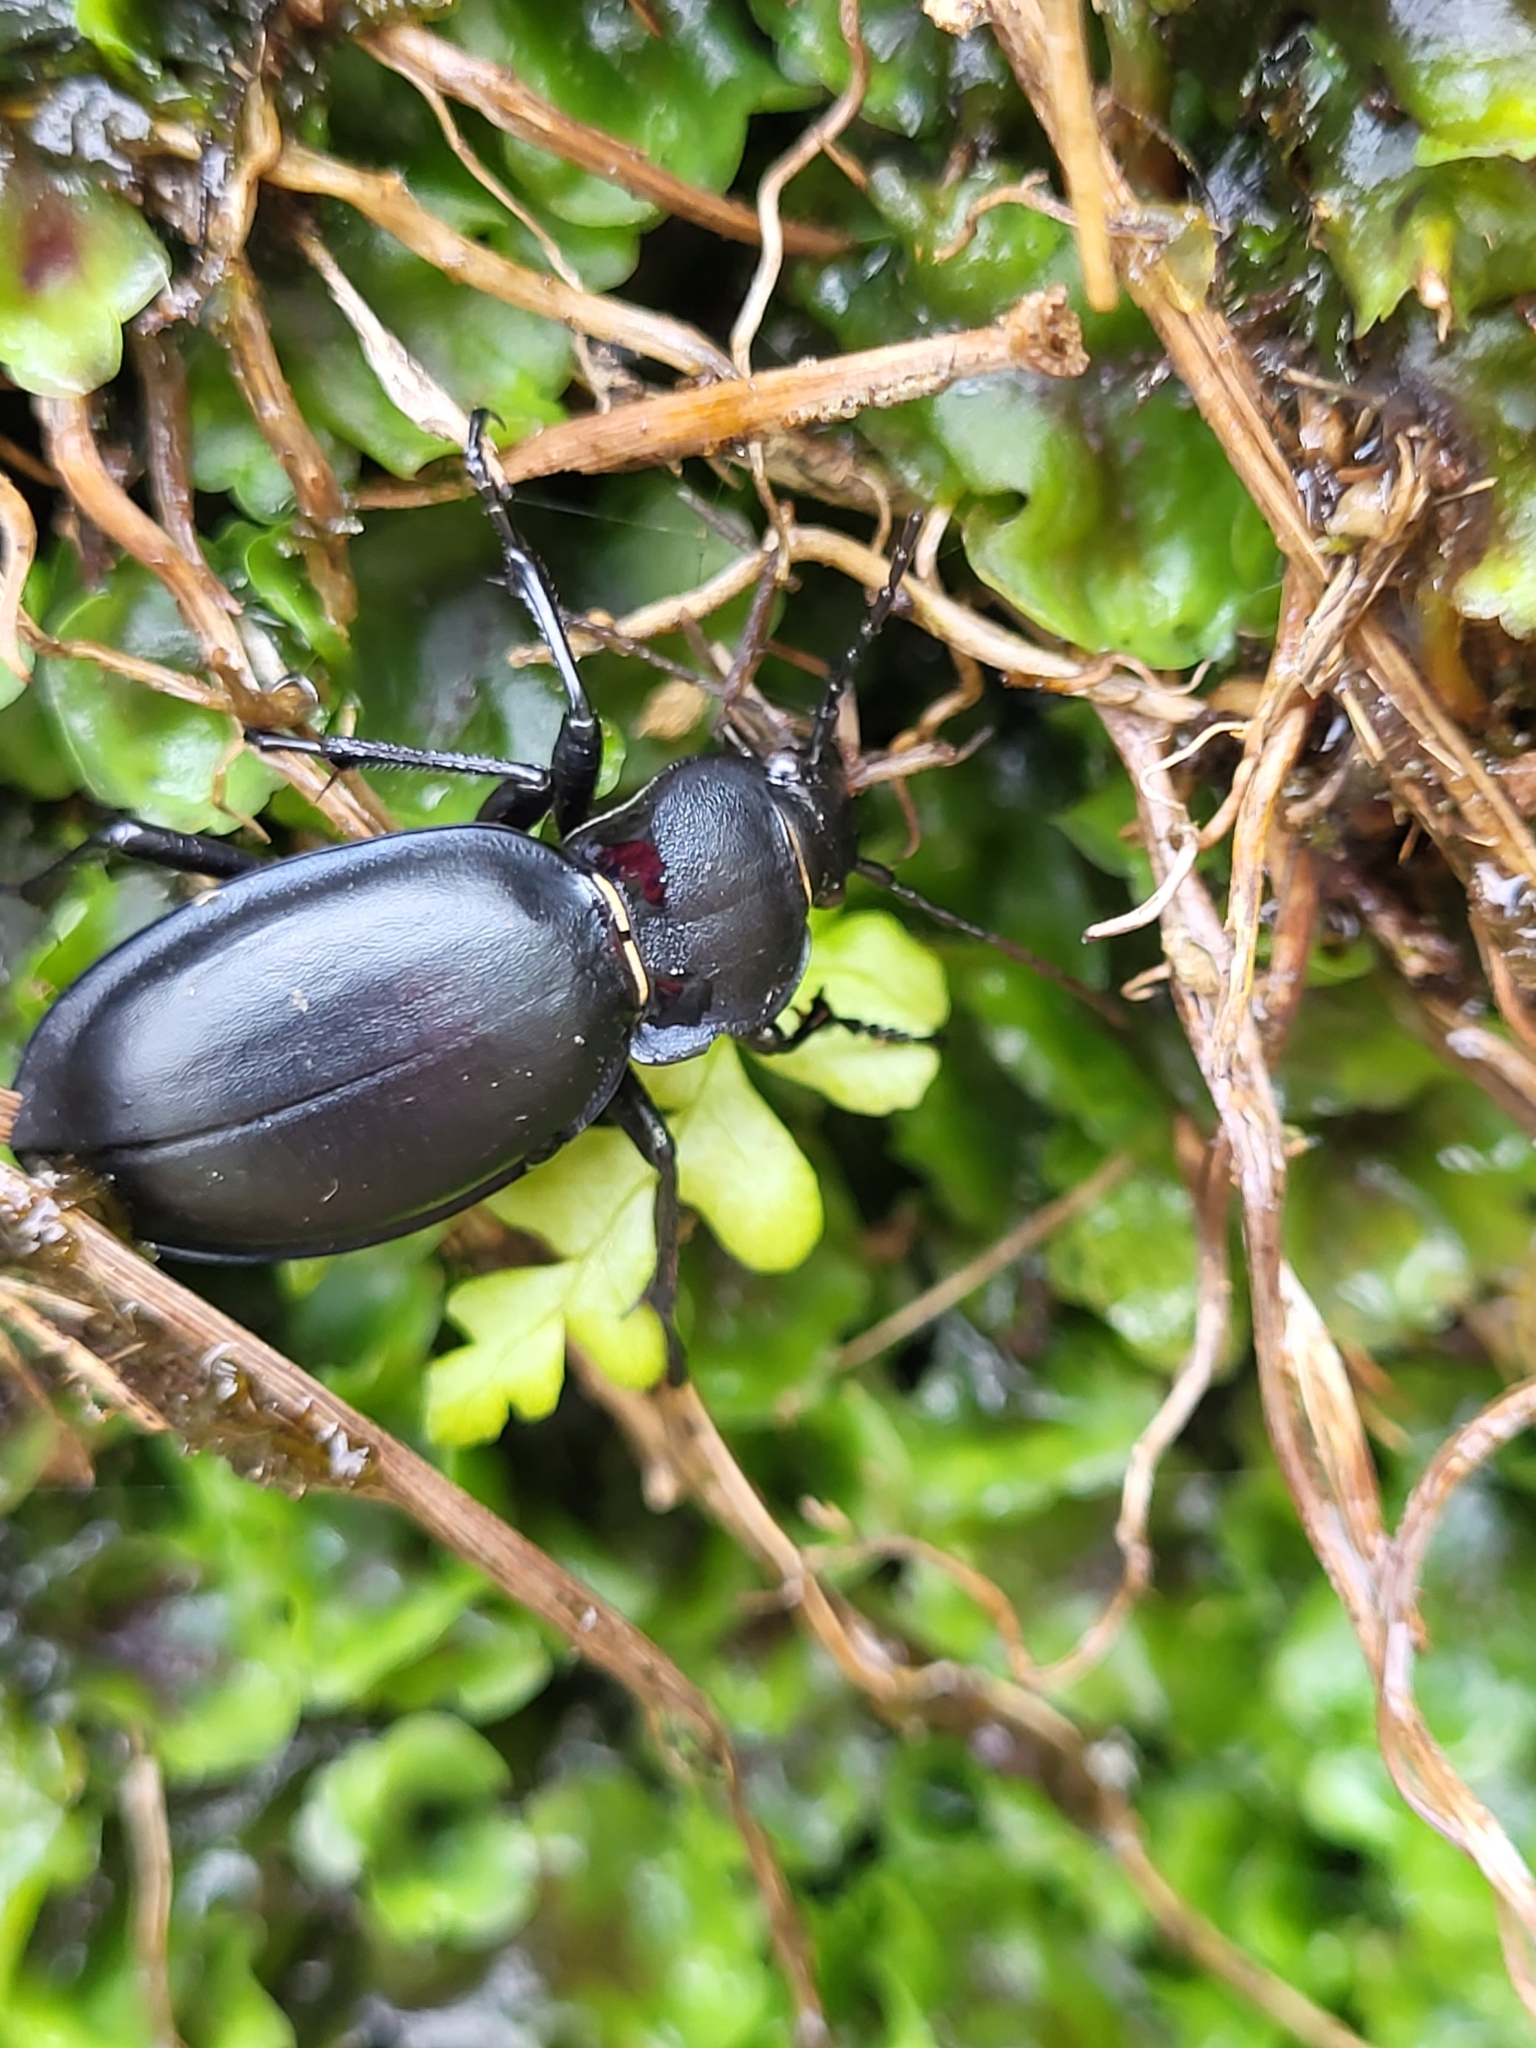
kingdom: Animalia
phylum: Arthropoda
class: Insecta
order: Coleoptera
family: Carabidae
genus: Carabus
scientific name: Carabus glabratus
